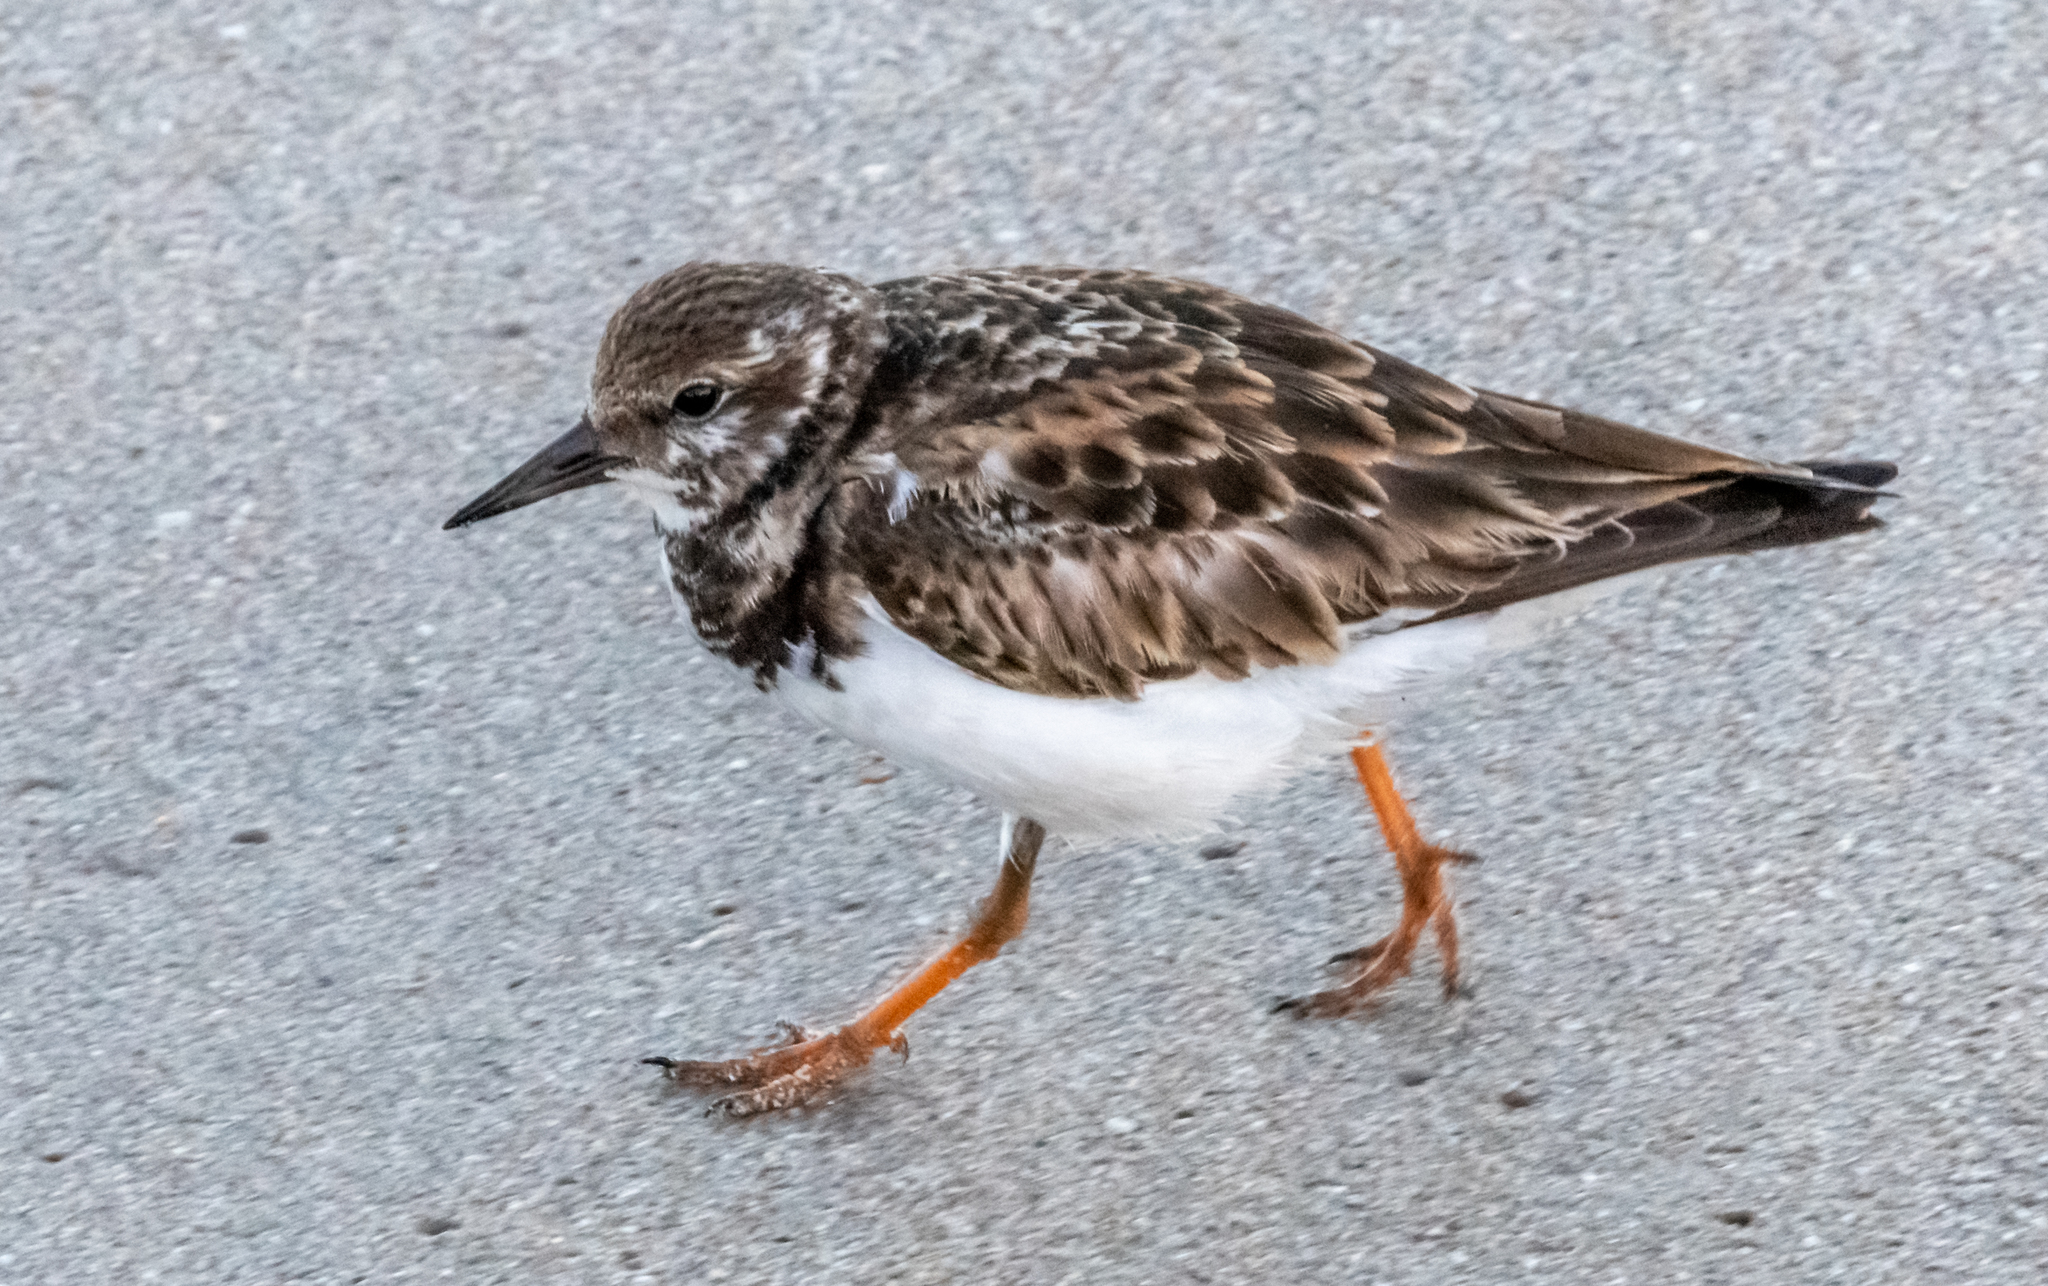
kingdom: Animalia
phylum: Chordata
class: Aves
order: Charadriiformes
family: Scolopacidae
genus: Arenaria
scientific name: Arenaria interpres
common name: Ruddy turnstone
